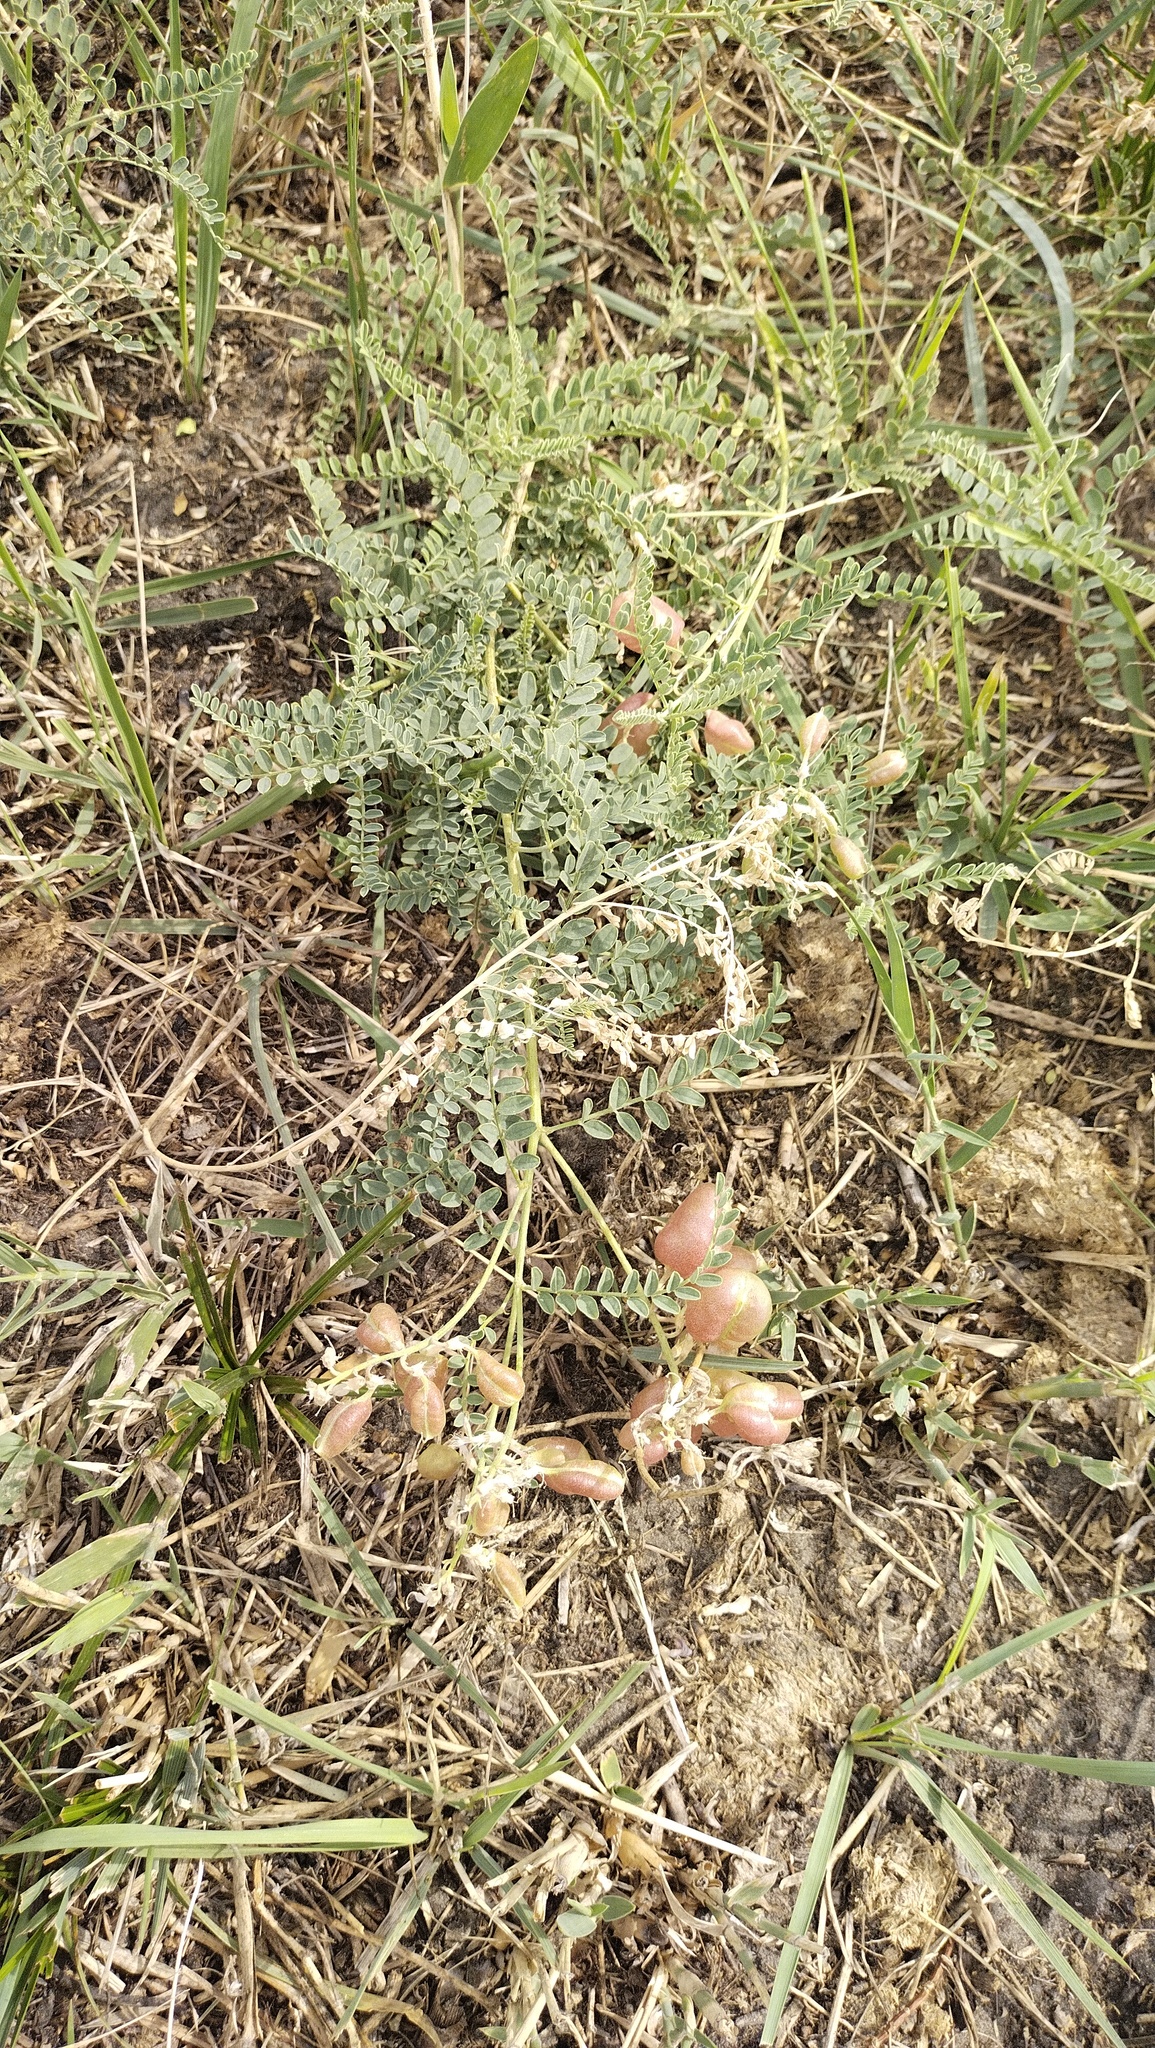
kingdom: Plantae
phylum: Tracheophyta
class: Magnoliopsida
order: Fabales
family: Fabaceae
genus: Sphaerophysa
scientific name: Sphaerophysa salsula
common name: Alkali swainsonpea
